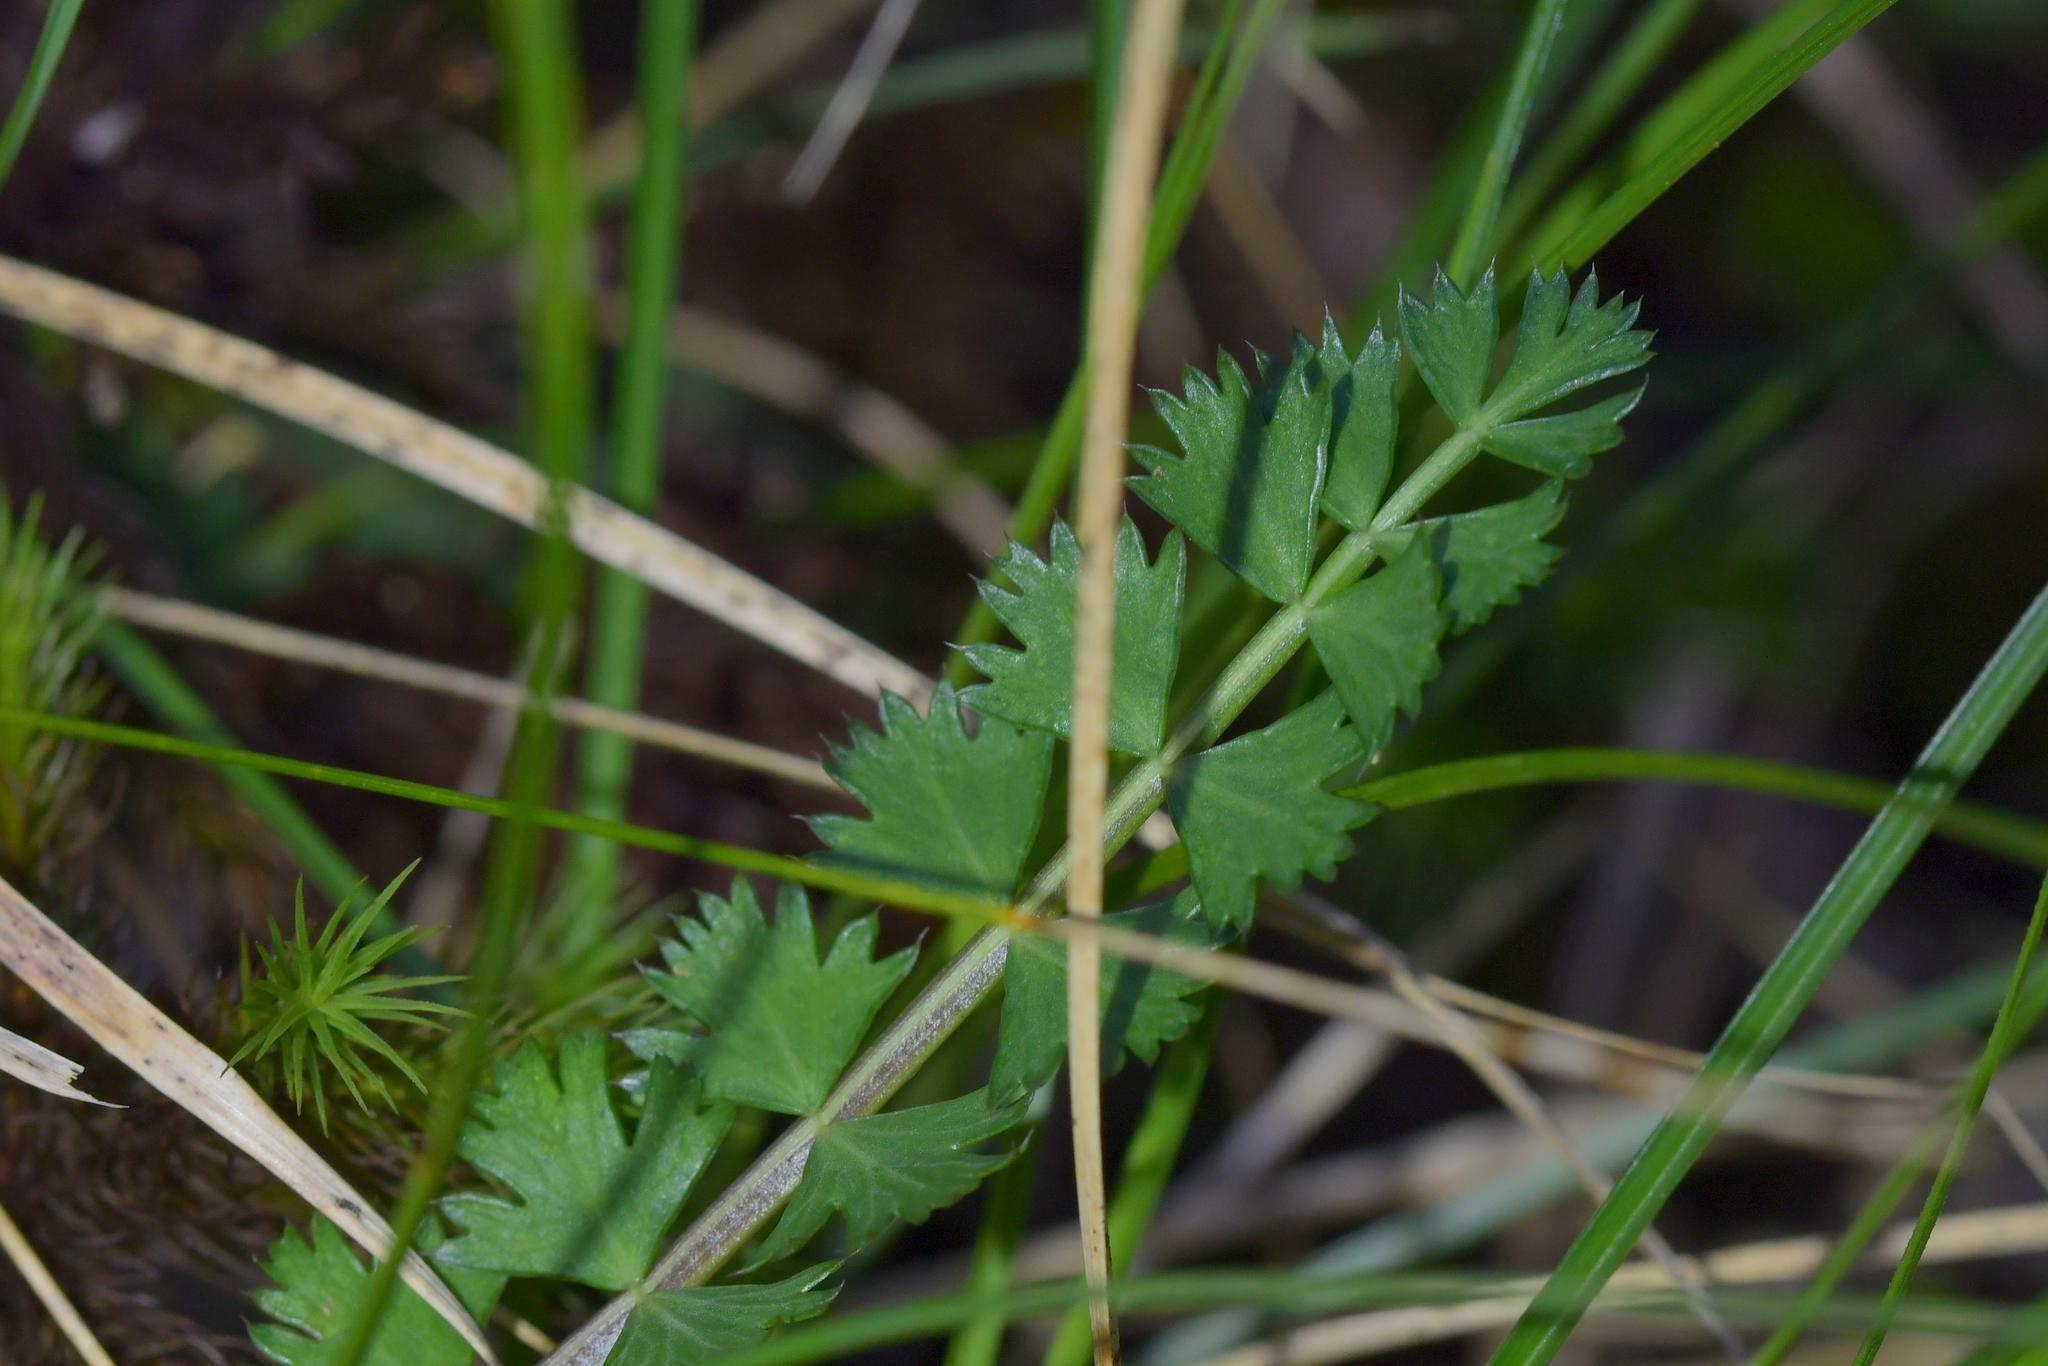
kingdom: Plantae
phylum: Tracheophyta
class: Magnoliopsida
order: Apiales
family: Apiaceae
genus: Anisotome
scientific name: Anisotome aromatica
